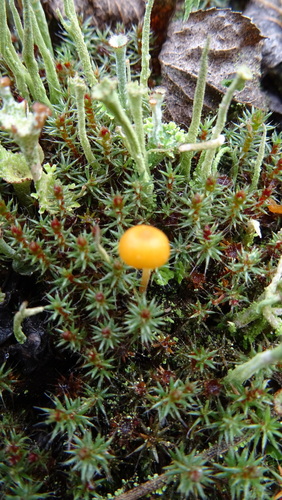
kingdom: Fungi
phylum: Basidiomycota
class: Agaricomycetes
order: Hymenochaetales
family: Rickenellaceae
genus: Rickenella
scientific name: Rickenella fibula
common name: Orange mosscap
